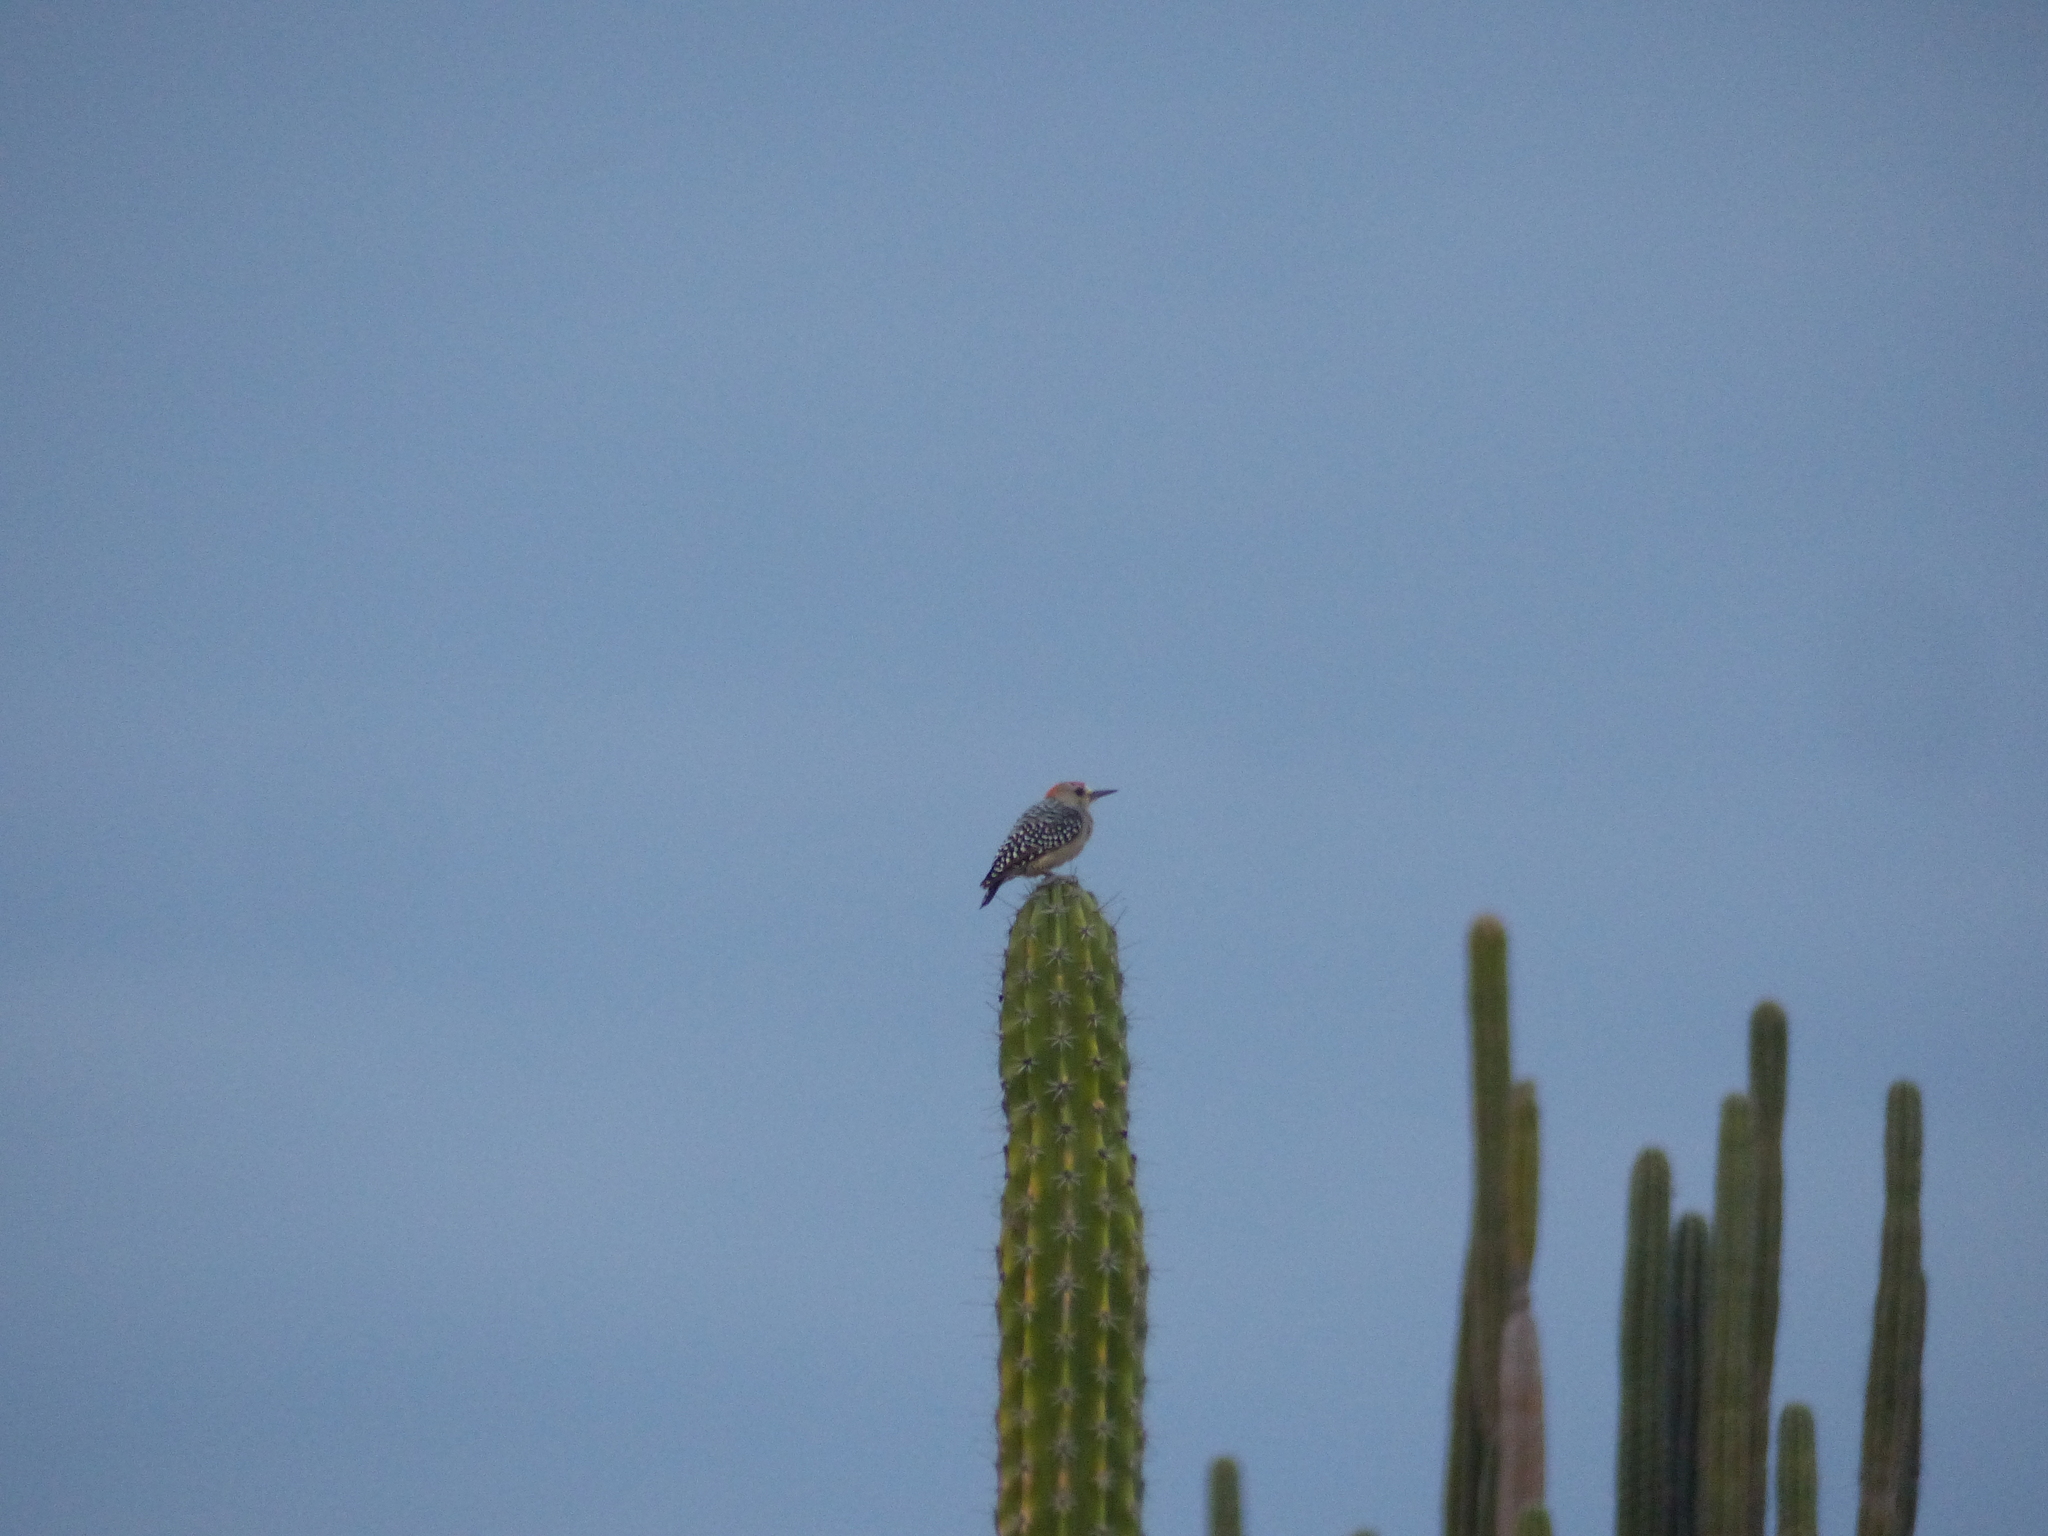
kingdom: Animalia
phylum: Chordata
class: Aves
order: Piciformes
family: Picidae
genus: Melanerpes
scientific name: Melanerpes rubricapillus
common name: Red-crowned woodpecker
